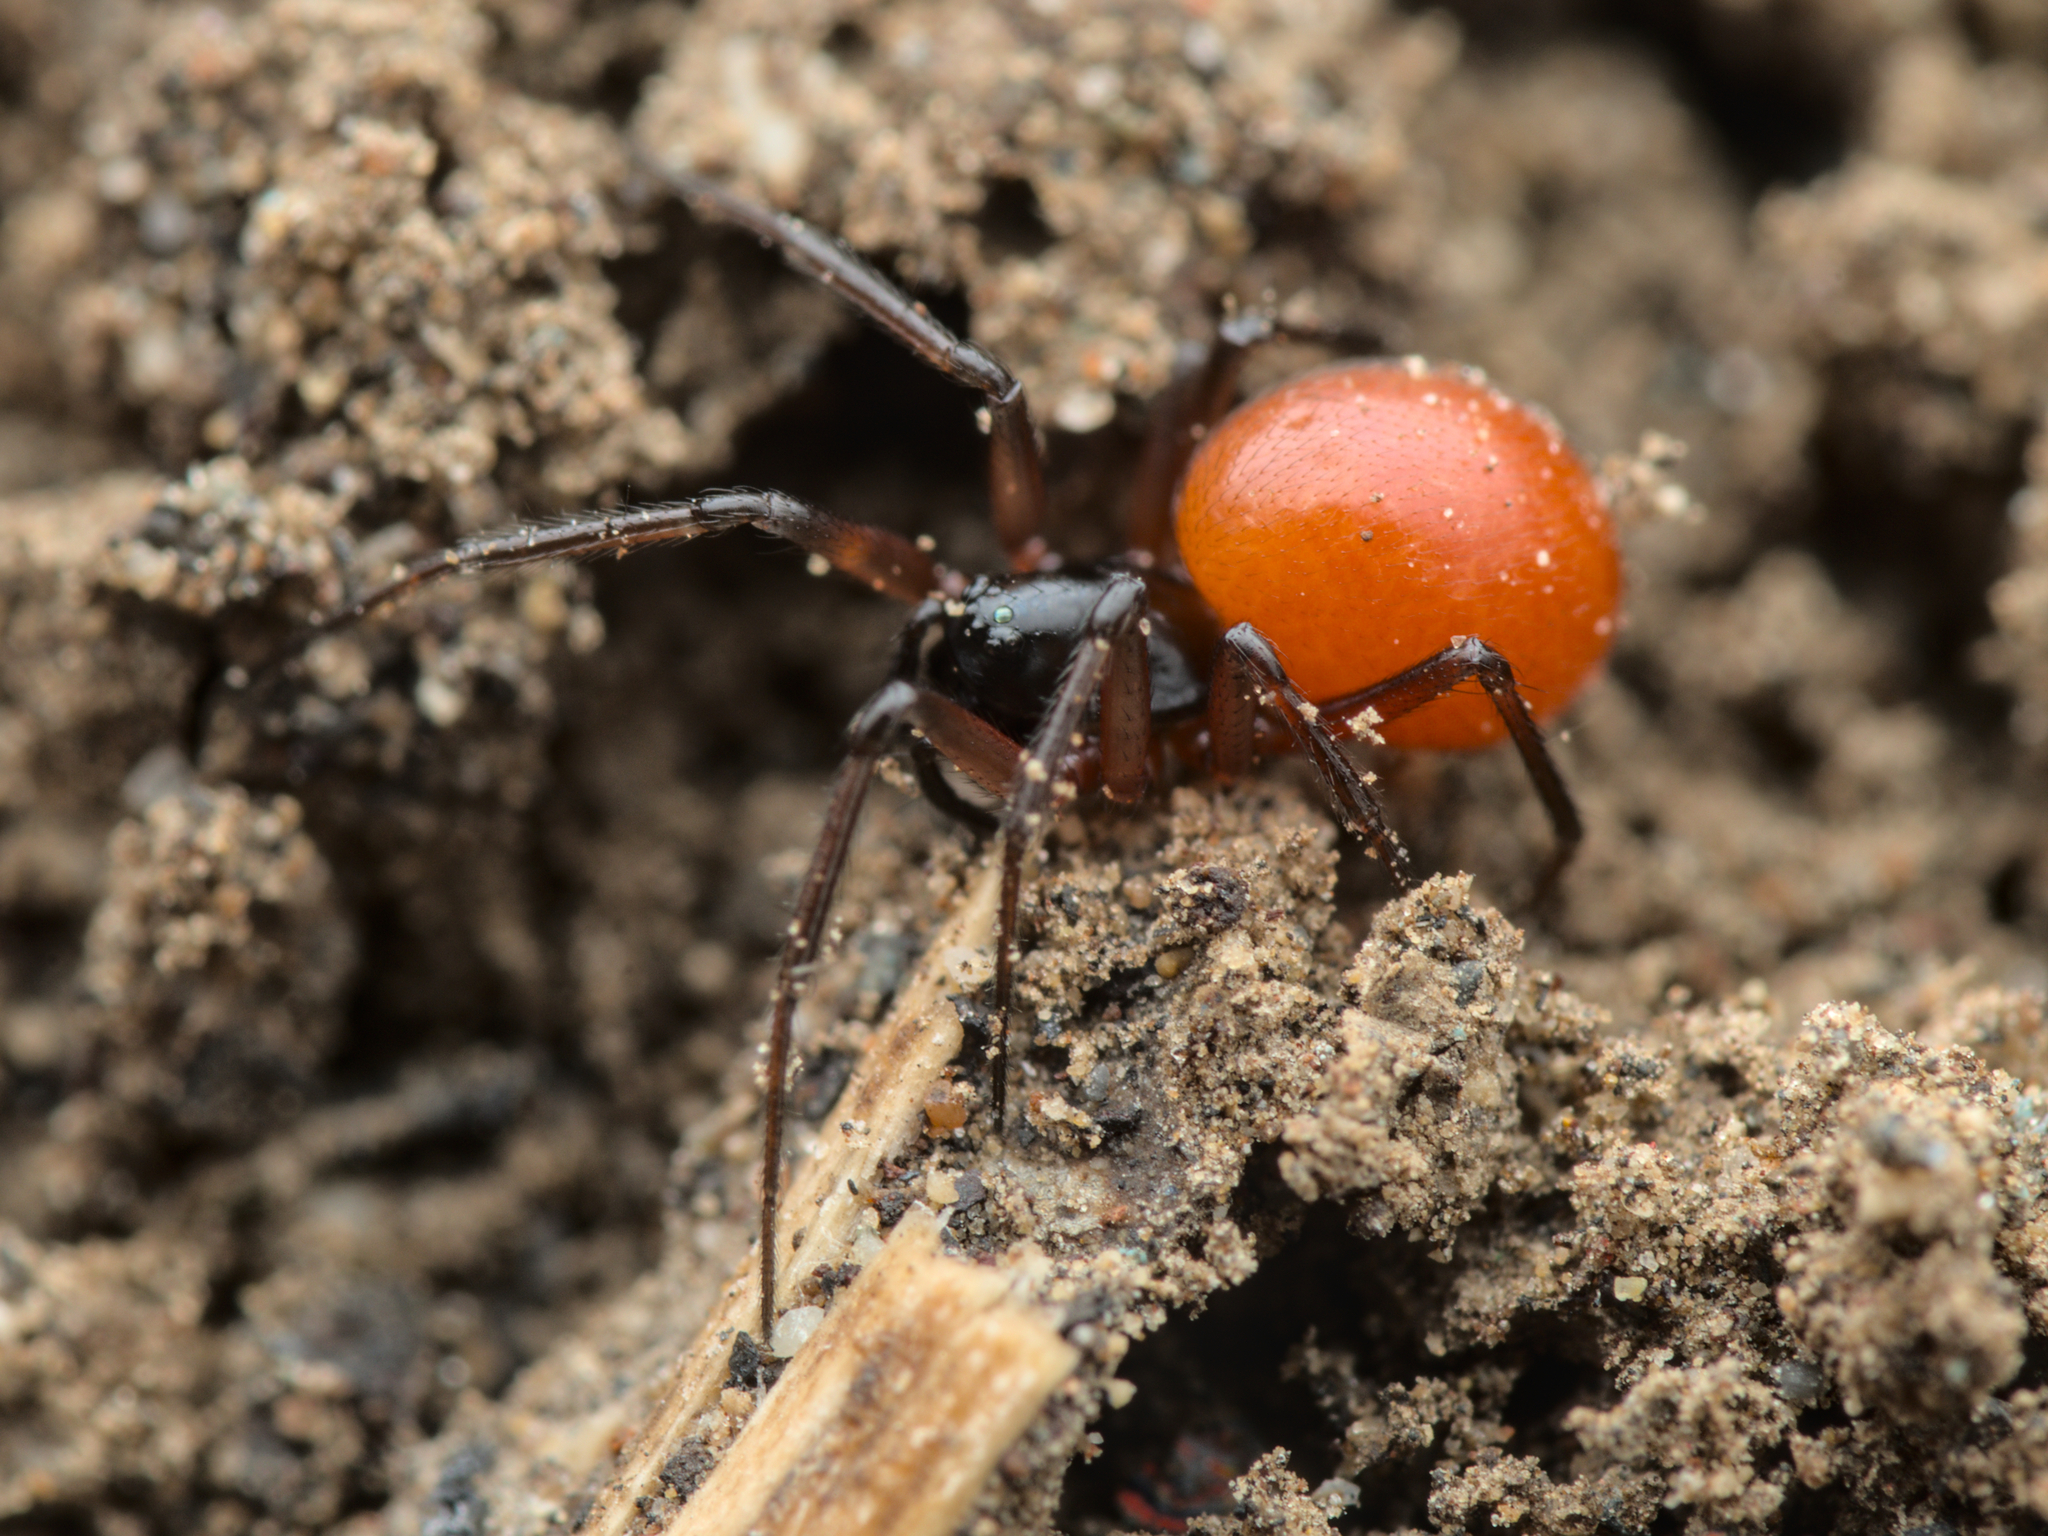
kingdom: Animalia
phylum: Arthropoda
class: Arachnida
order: Araneae
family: Linyphiidae
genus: Ostearius
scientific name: Ostearius melanopygius
